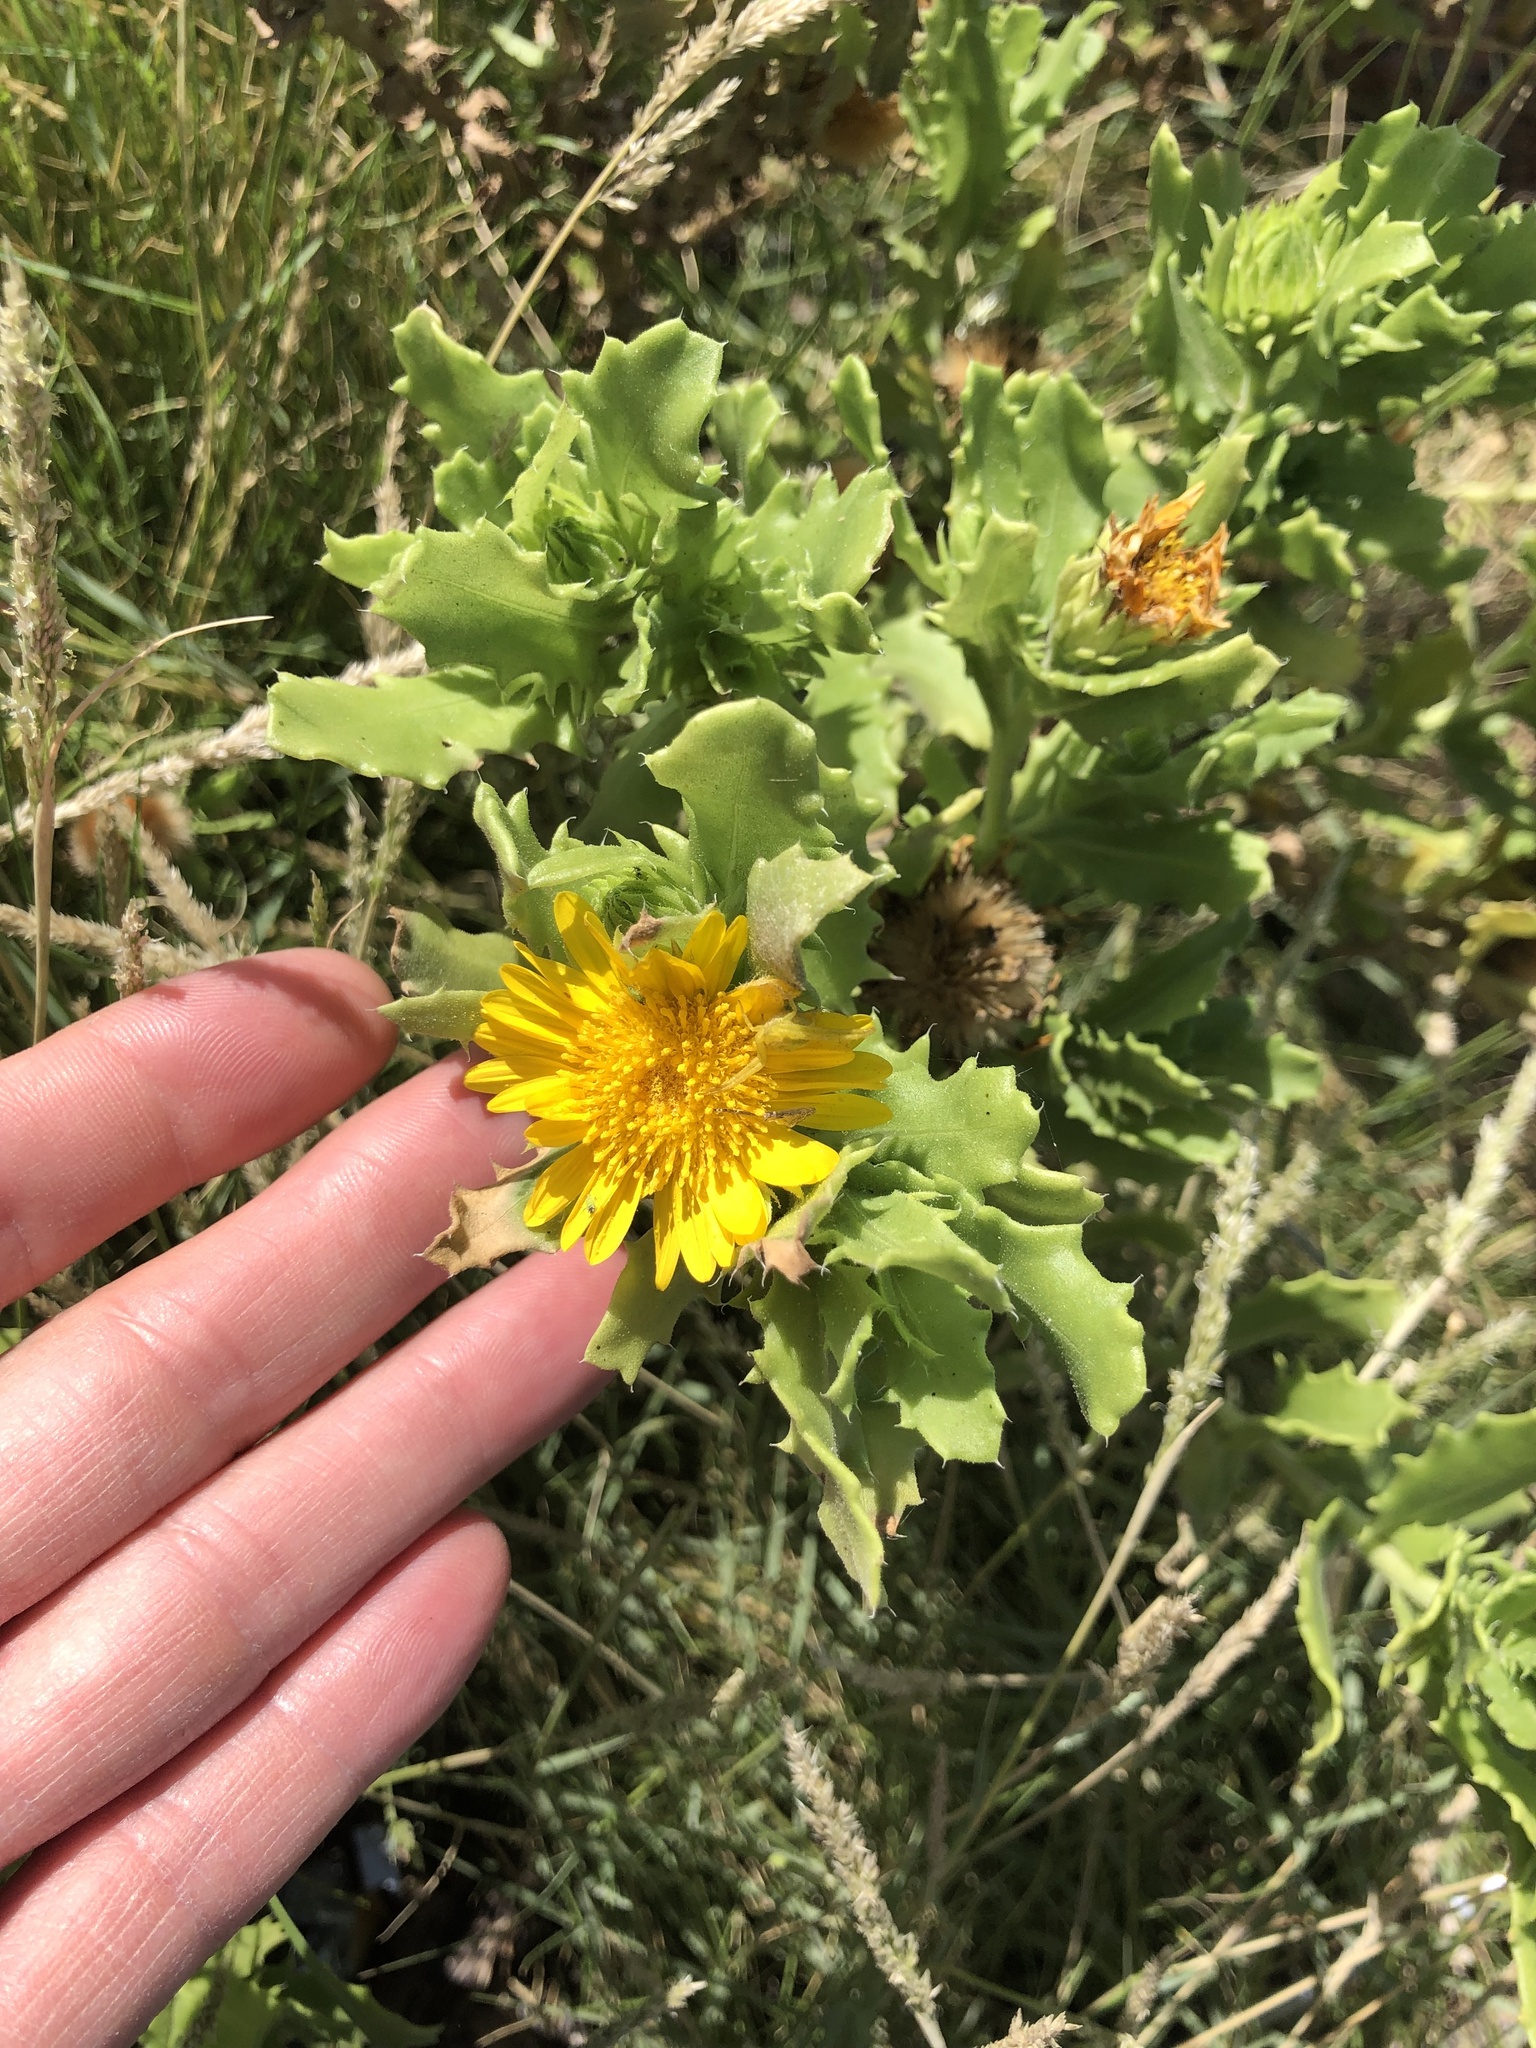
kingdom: Plantae
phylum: Tracheophyta
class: Magnoliopsida
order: Asterales
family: Asteraceae
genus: Rayjacksonia
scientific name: Rayjacksonia phyllocephala
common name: Gulf coast camphor daisy
